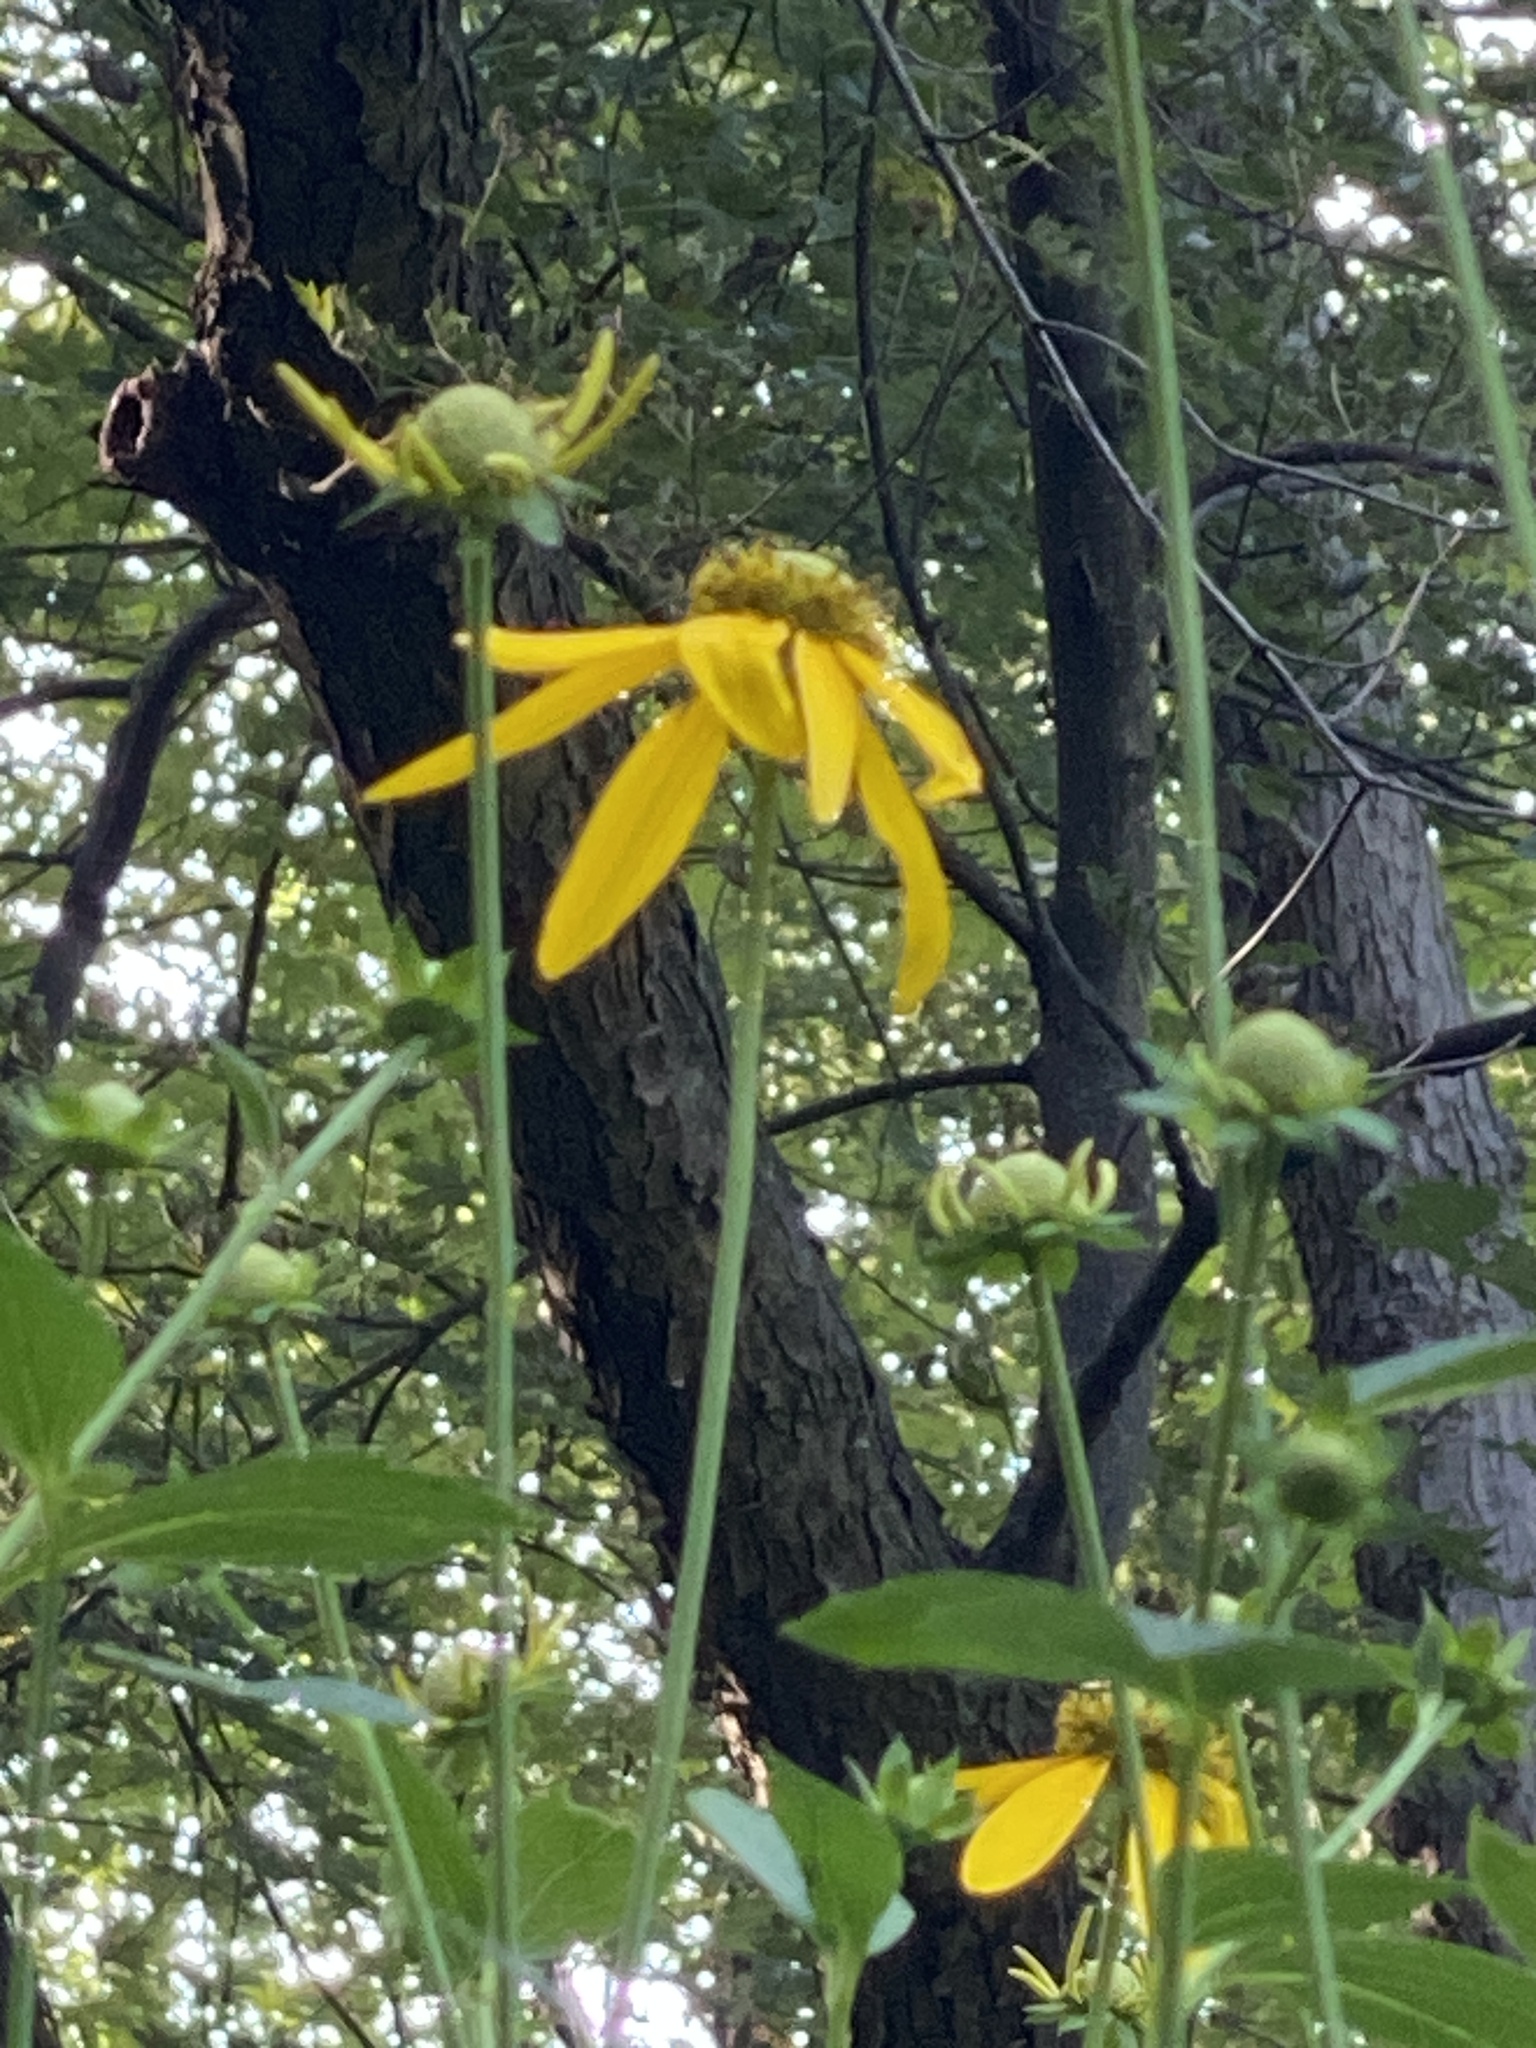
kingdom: Plantae
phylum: Tracheophyta
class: Magnoliopsida
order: Asterales
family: Asteraceae
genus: Rudbeckia
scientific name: Rudbeckia laciniata
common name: Coneflower
